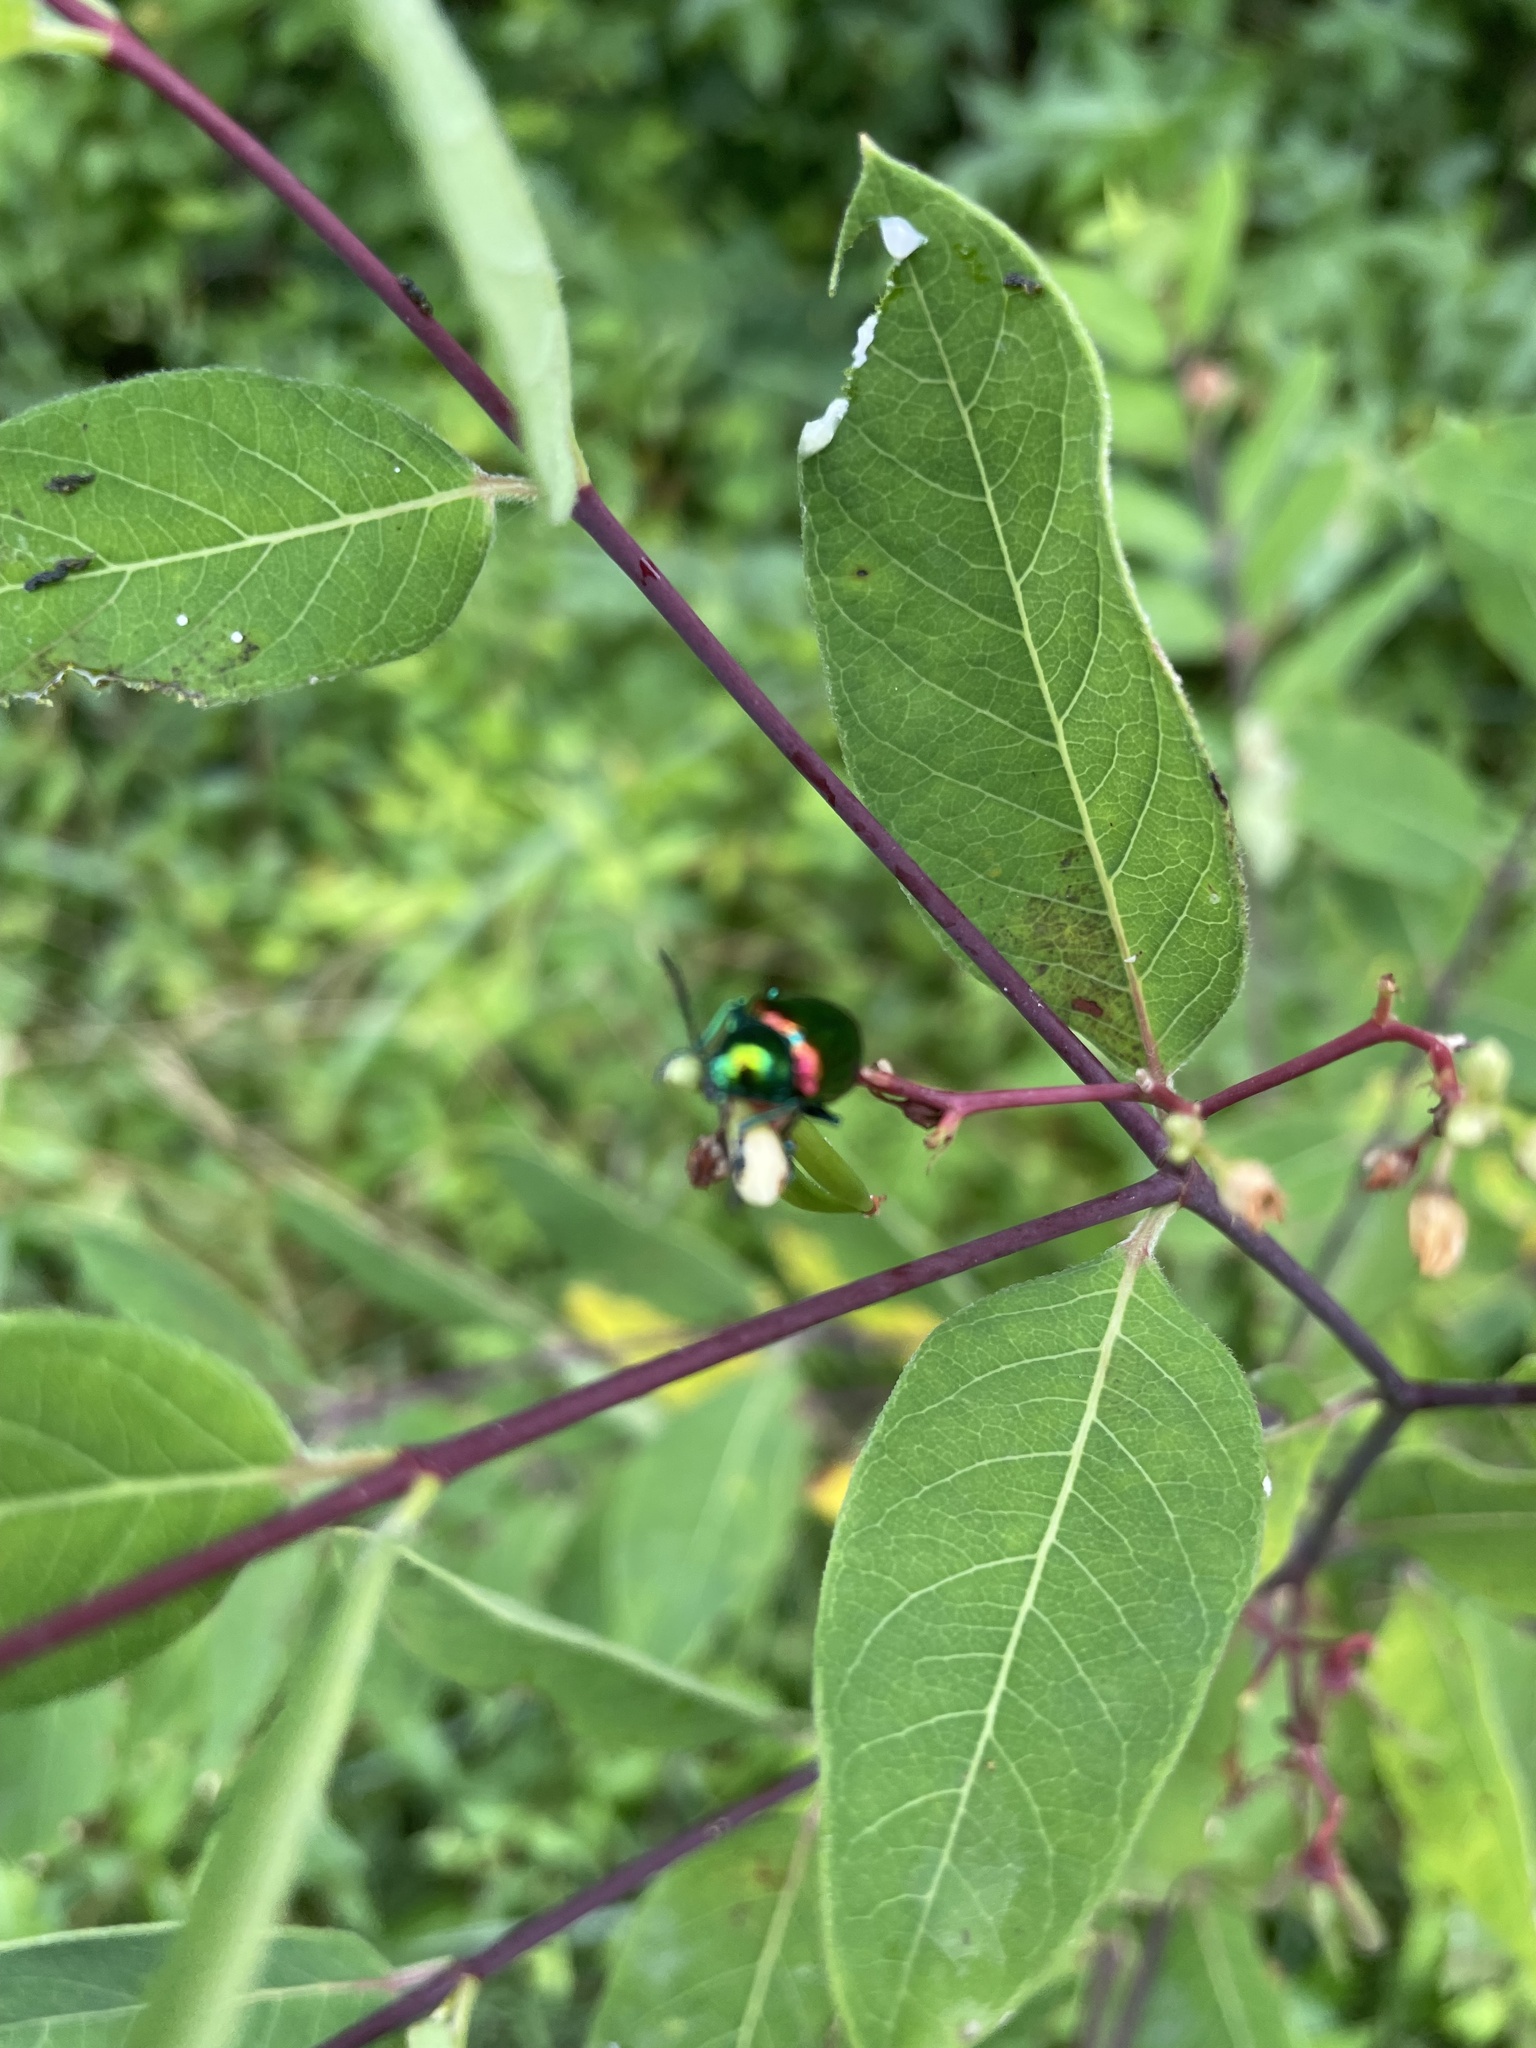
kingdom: Animalia
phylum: Arthropoda
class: Insecta
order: Coleoptera
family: Chrysomelidae
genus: Chrysochus
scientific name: Chrysochus auratus
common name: Dogbane leaf beetle
